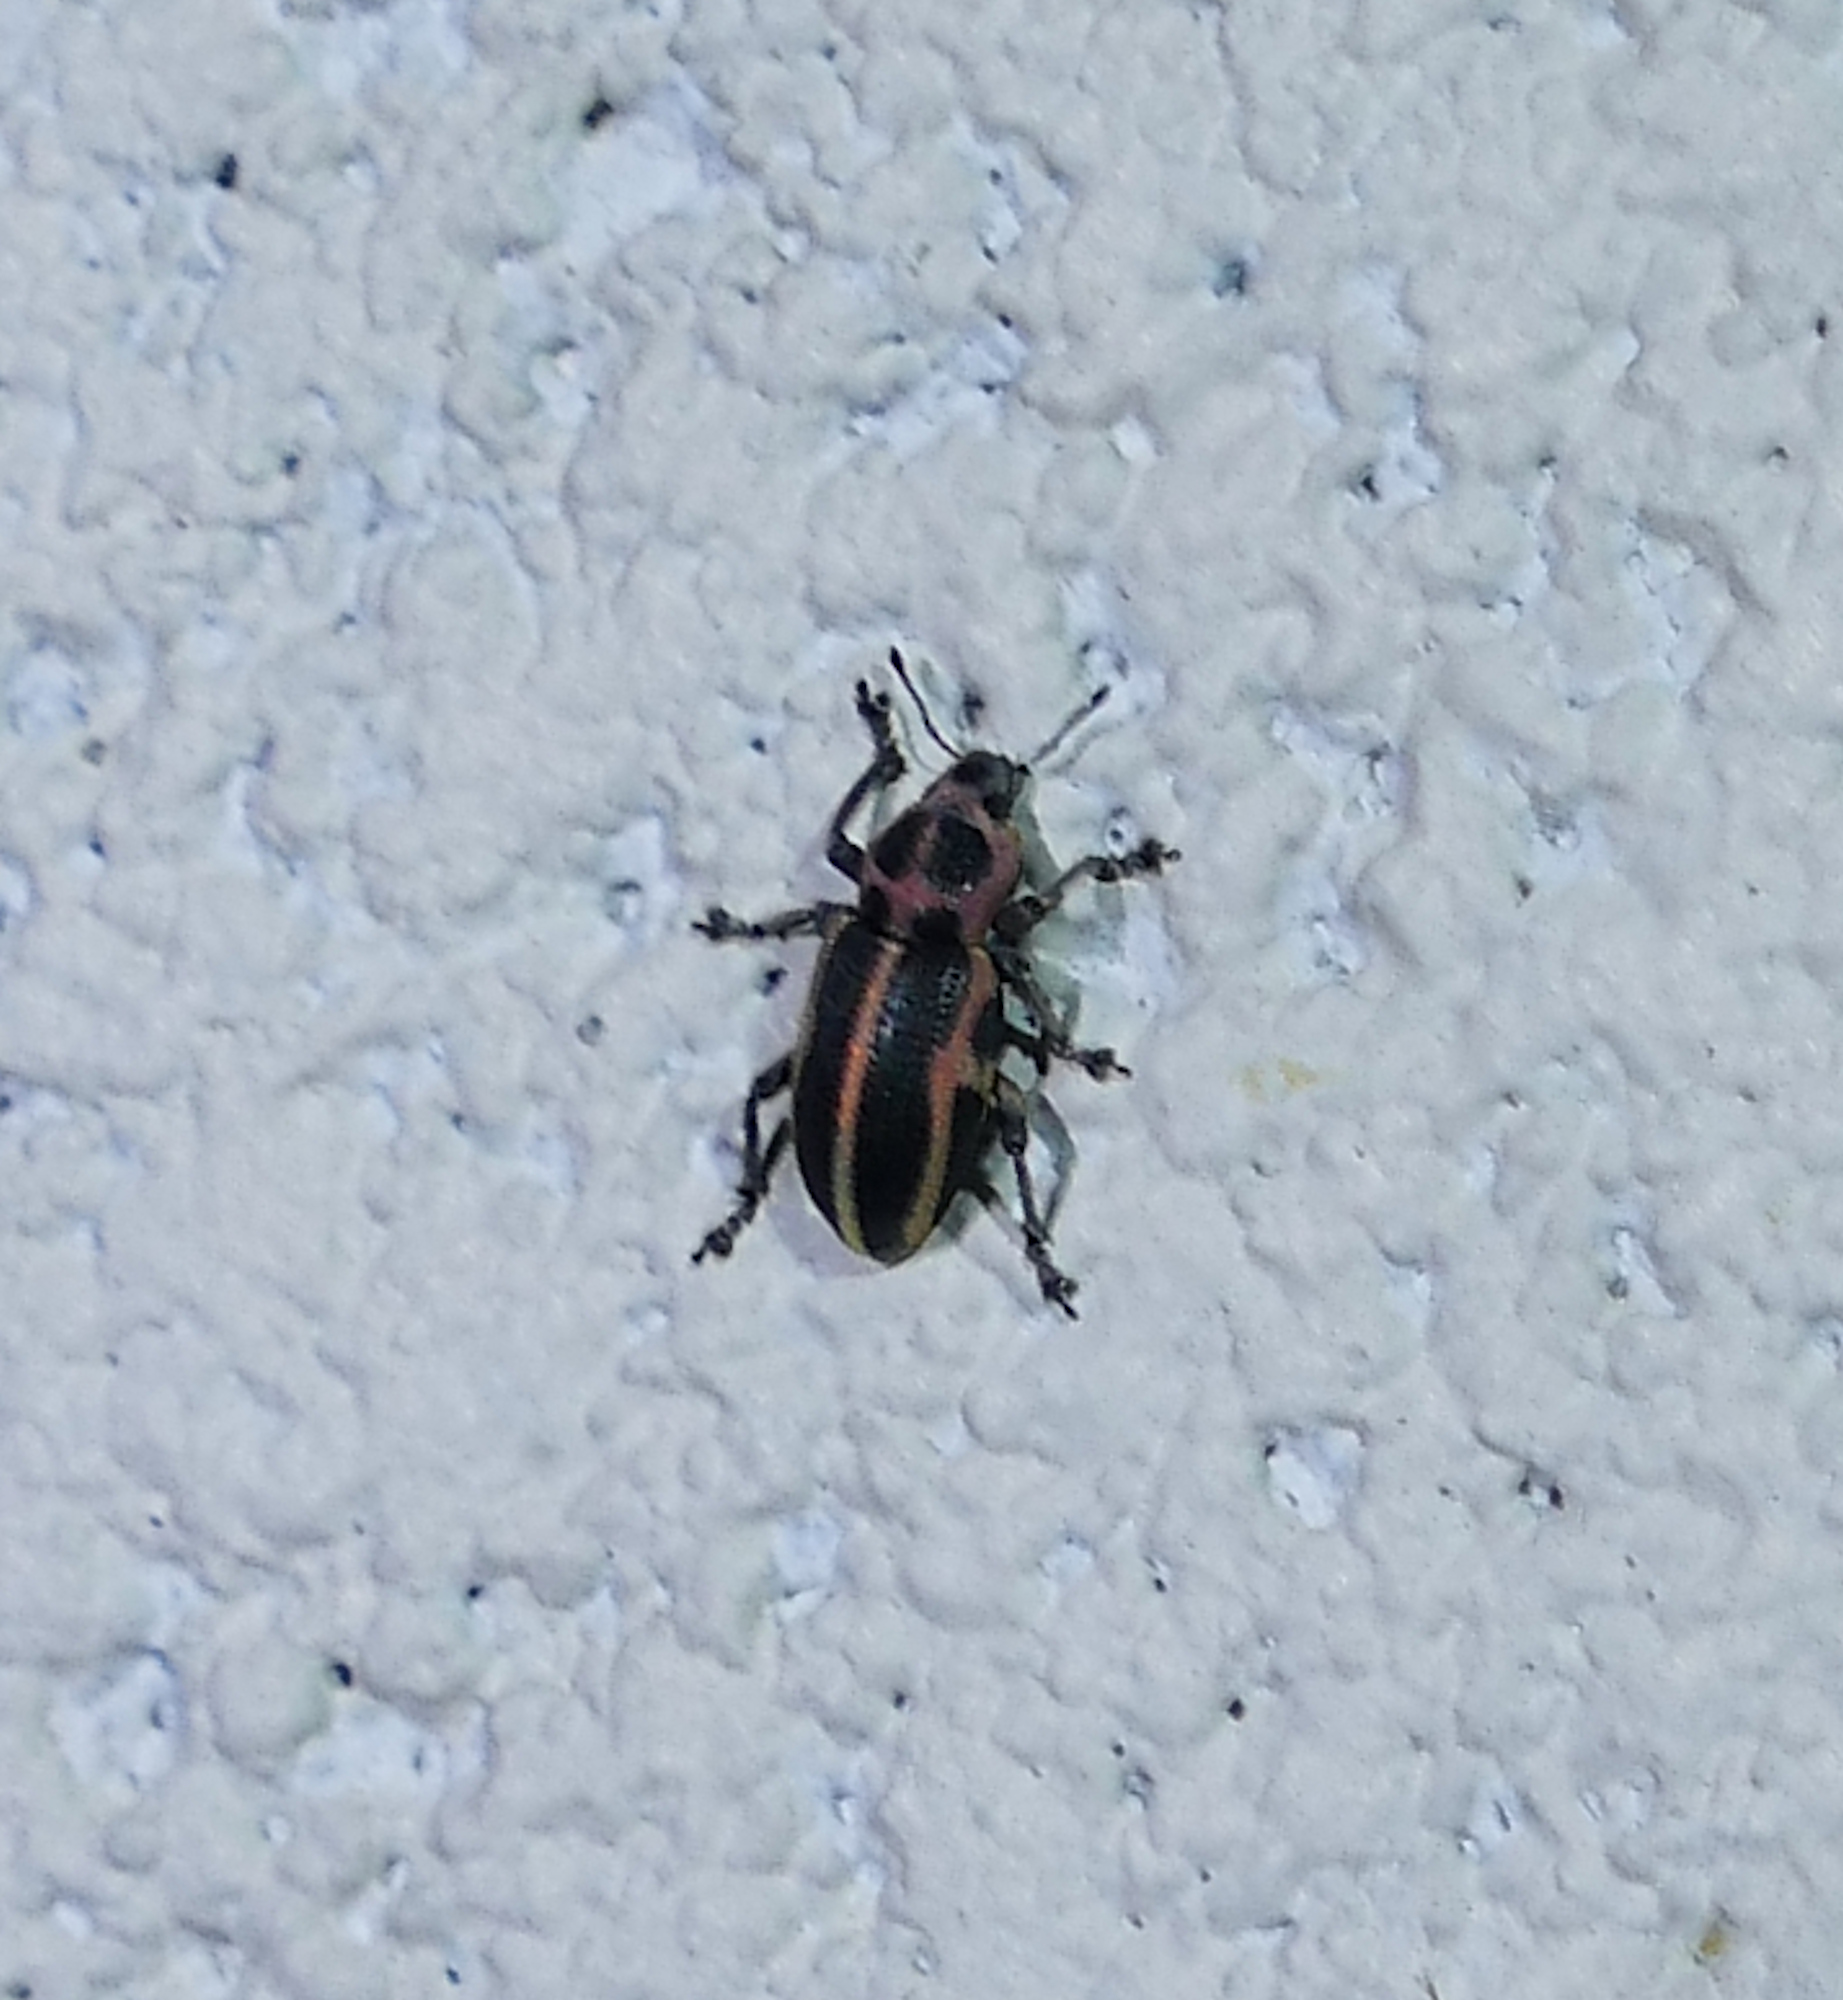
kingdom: Animalia
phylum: Arthropoda
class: Insecta
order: Coleoptera
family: Curculionidae
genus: Eudiagogus
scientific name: Eudiagogus pulcher
